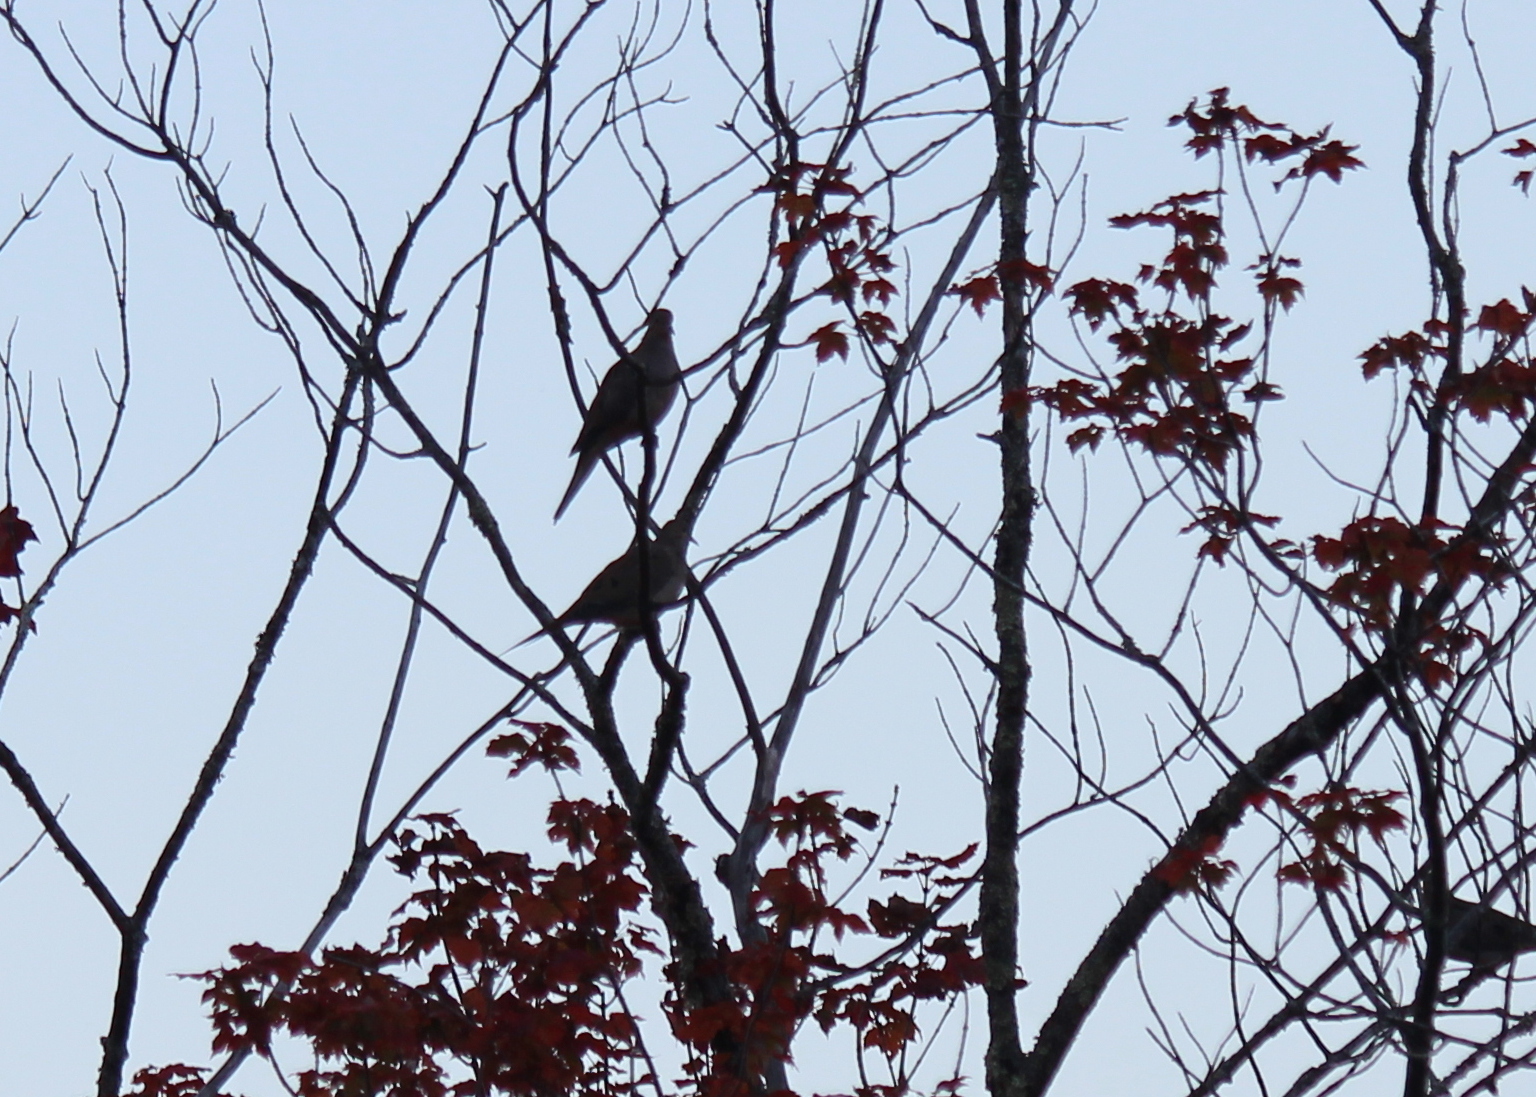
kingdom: Animalia
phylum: Chordata
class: Aves
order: Columbiformes
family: Columbidae
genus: Zenaida
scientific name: Zenaida macroura
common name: Mourning dove
